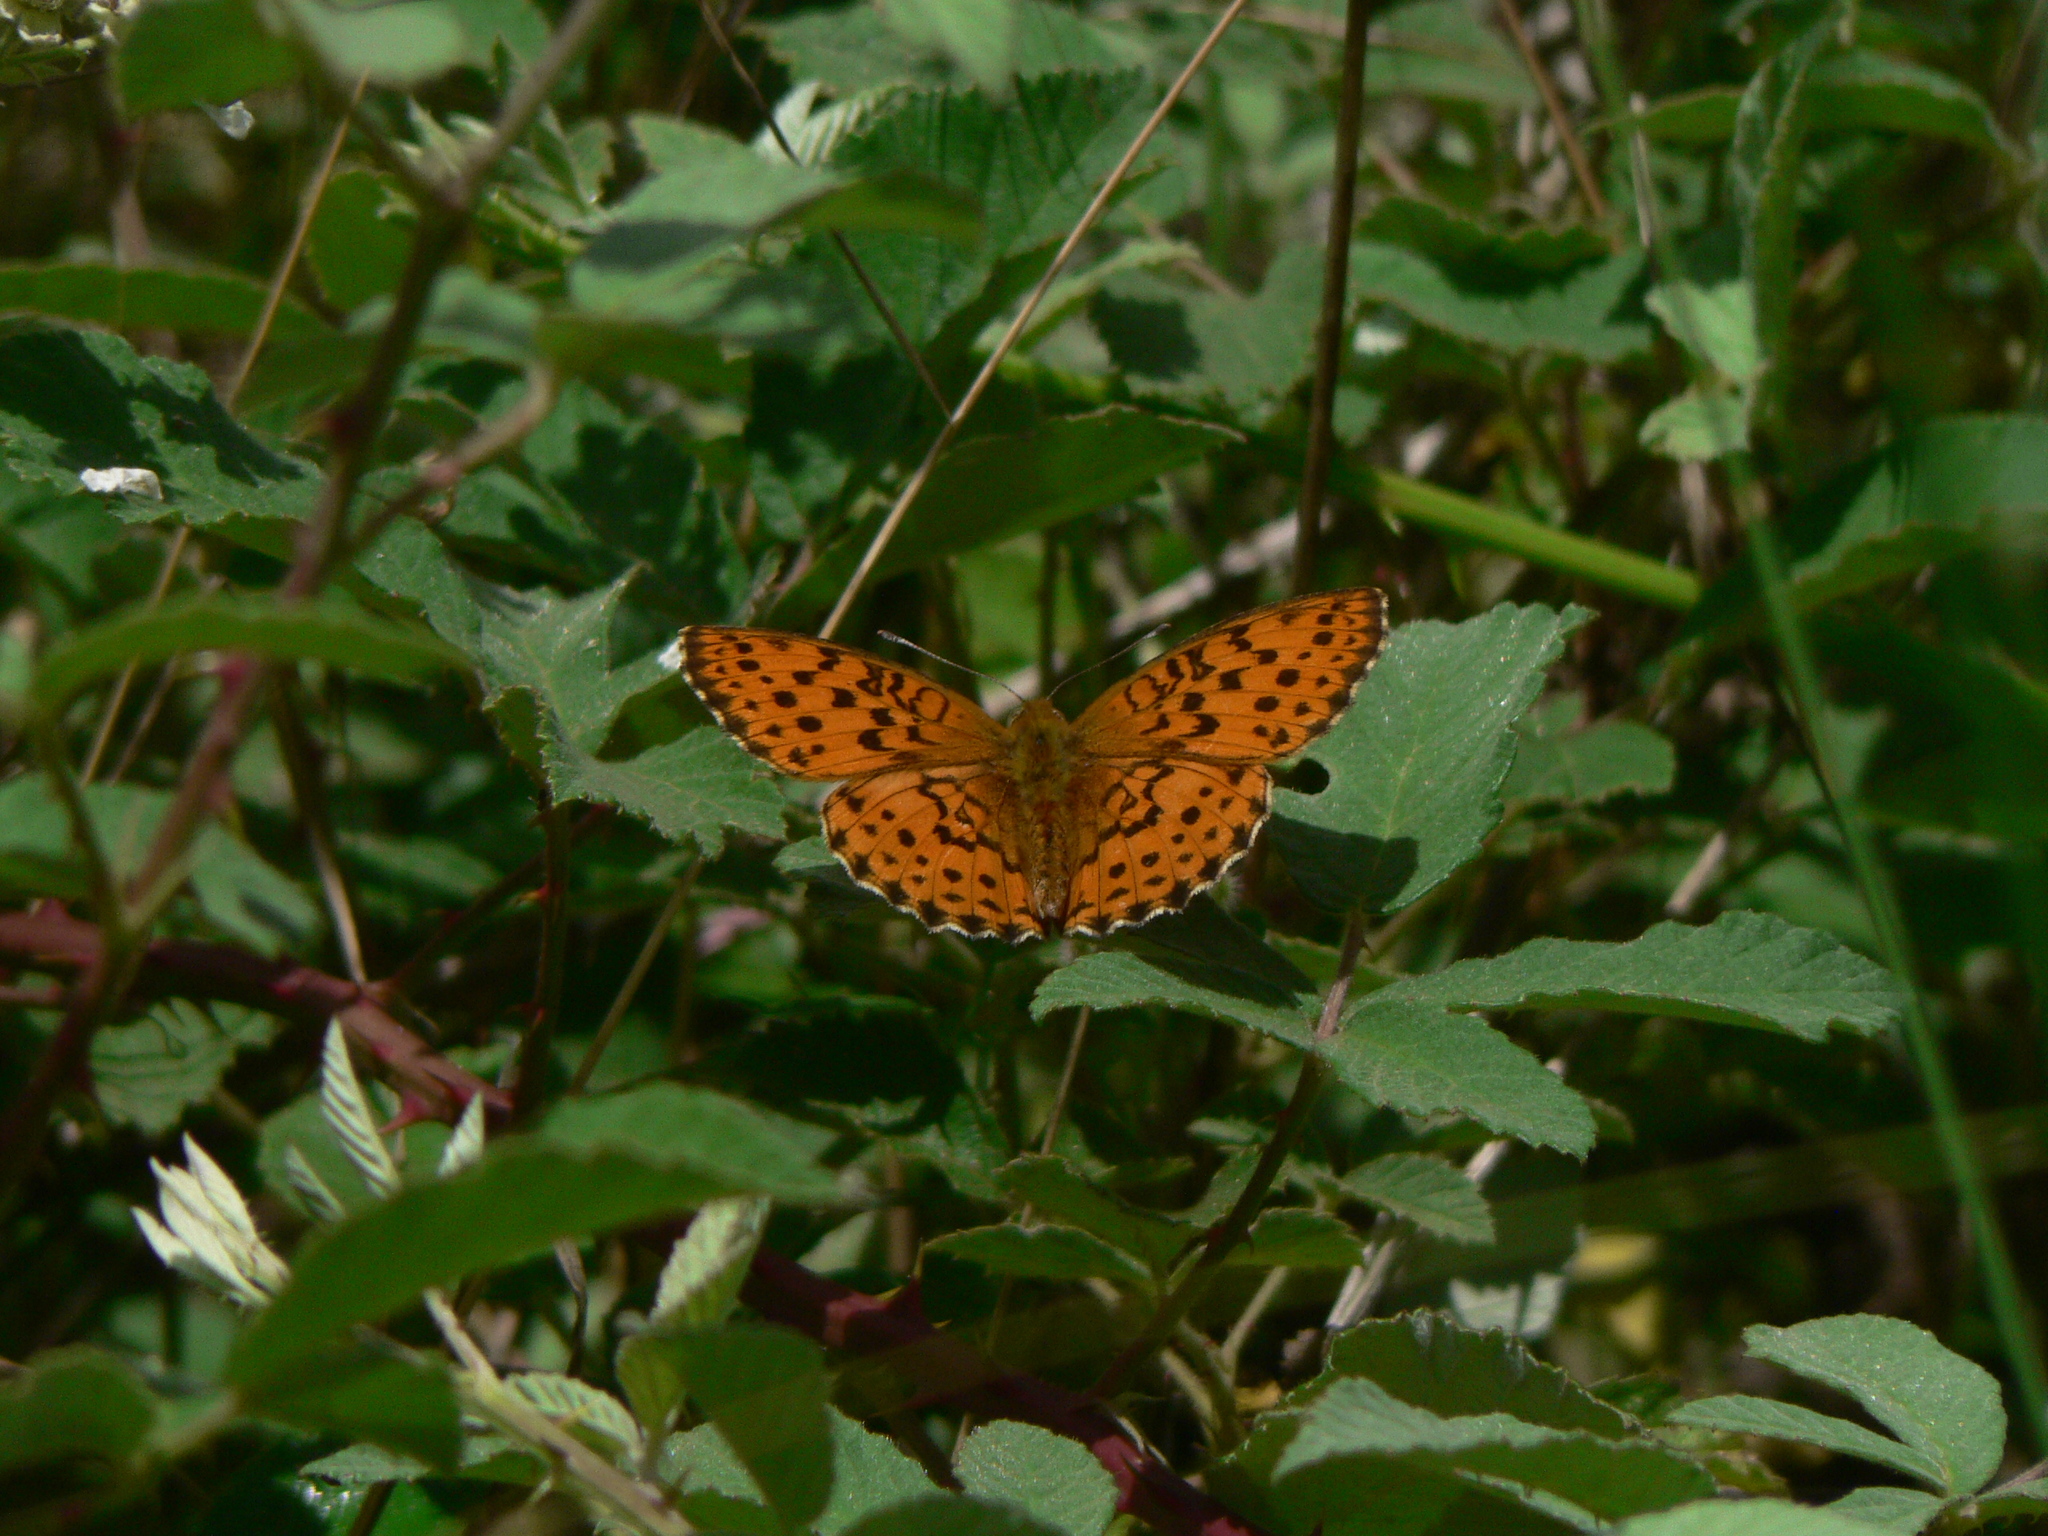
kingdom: Animalia
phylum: Arthropoda
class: Insecta
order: Lepidoptera
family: Nymphalidae
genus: Brenthis
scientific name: Brenthis daphne
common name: Marbled fritillary
